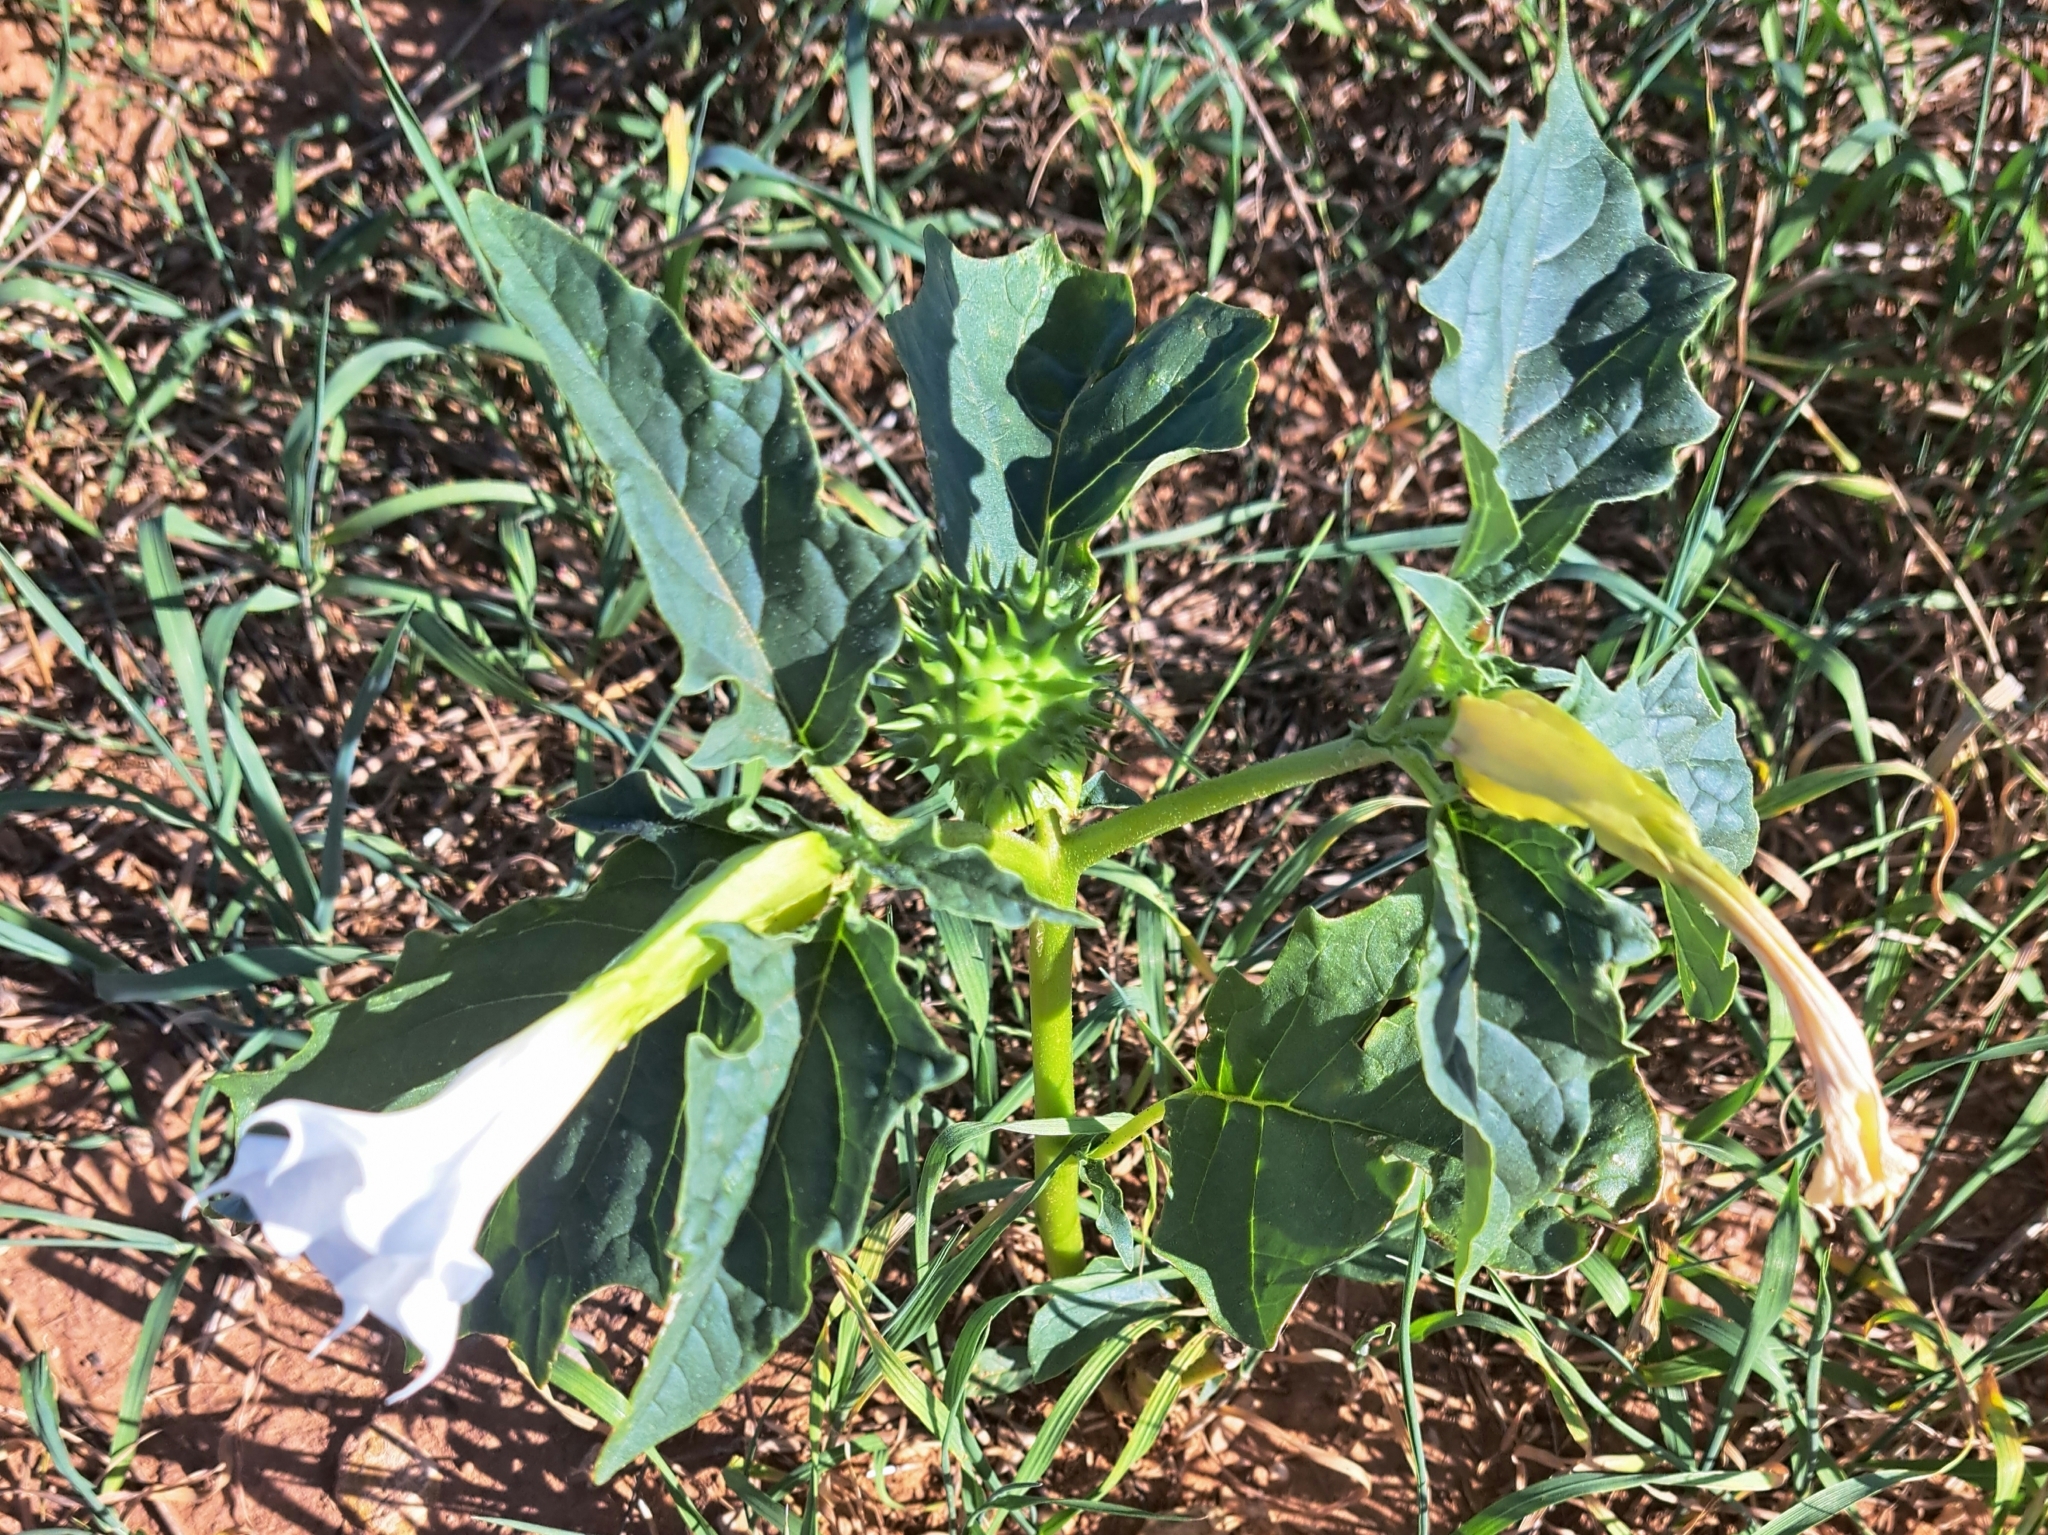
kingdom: Plantae
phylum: Tracheophyta
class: Magnoliopsida
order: Solanales
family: Solanaceae
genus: Datura
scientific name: Datura stramonium
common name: Thorn-apple
